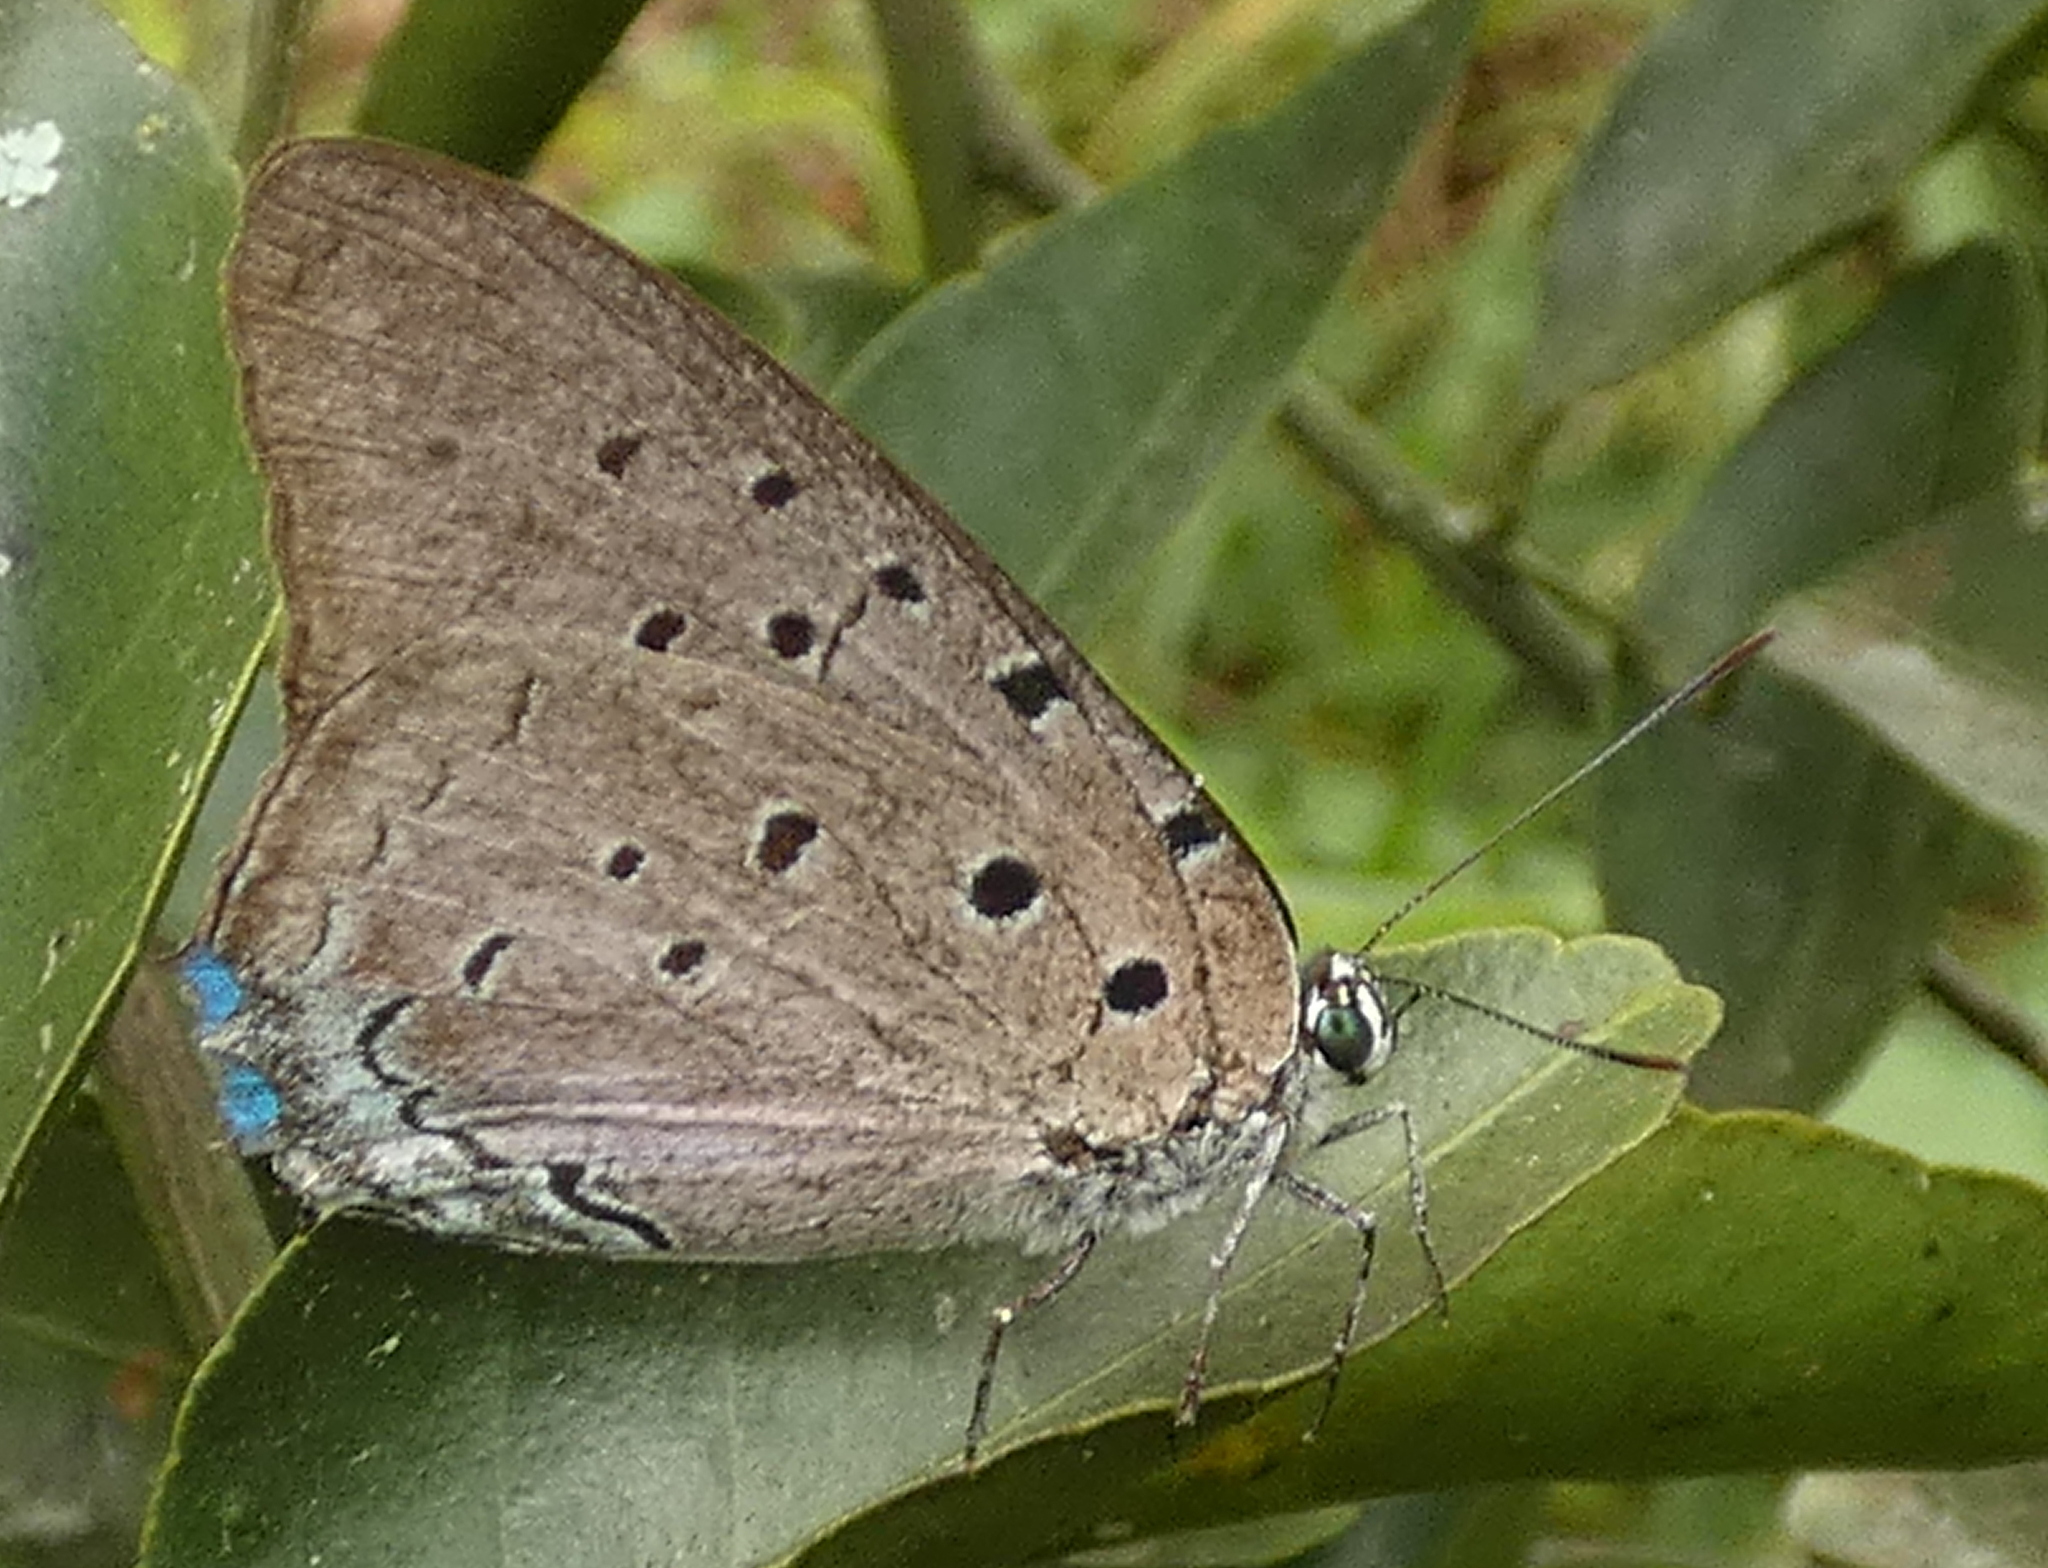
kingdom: Animalia
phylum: Arthropoda
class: Insecta
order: Lepidoptera
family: Lycaenidae
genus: Pseudolycaena
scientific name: Pseudolycaena marsyas
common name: Marsyas hairstreak
